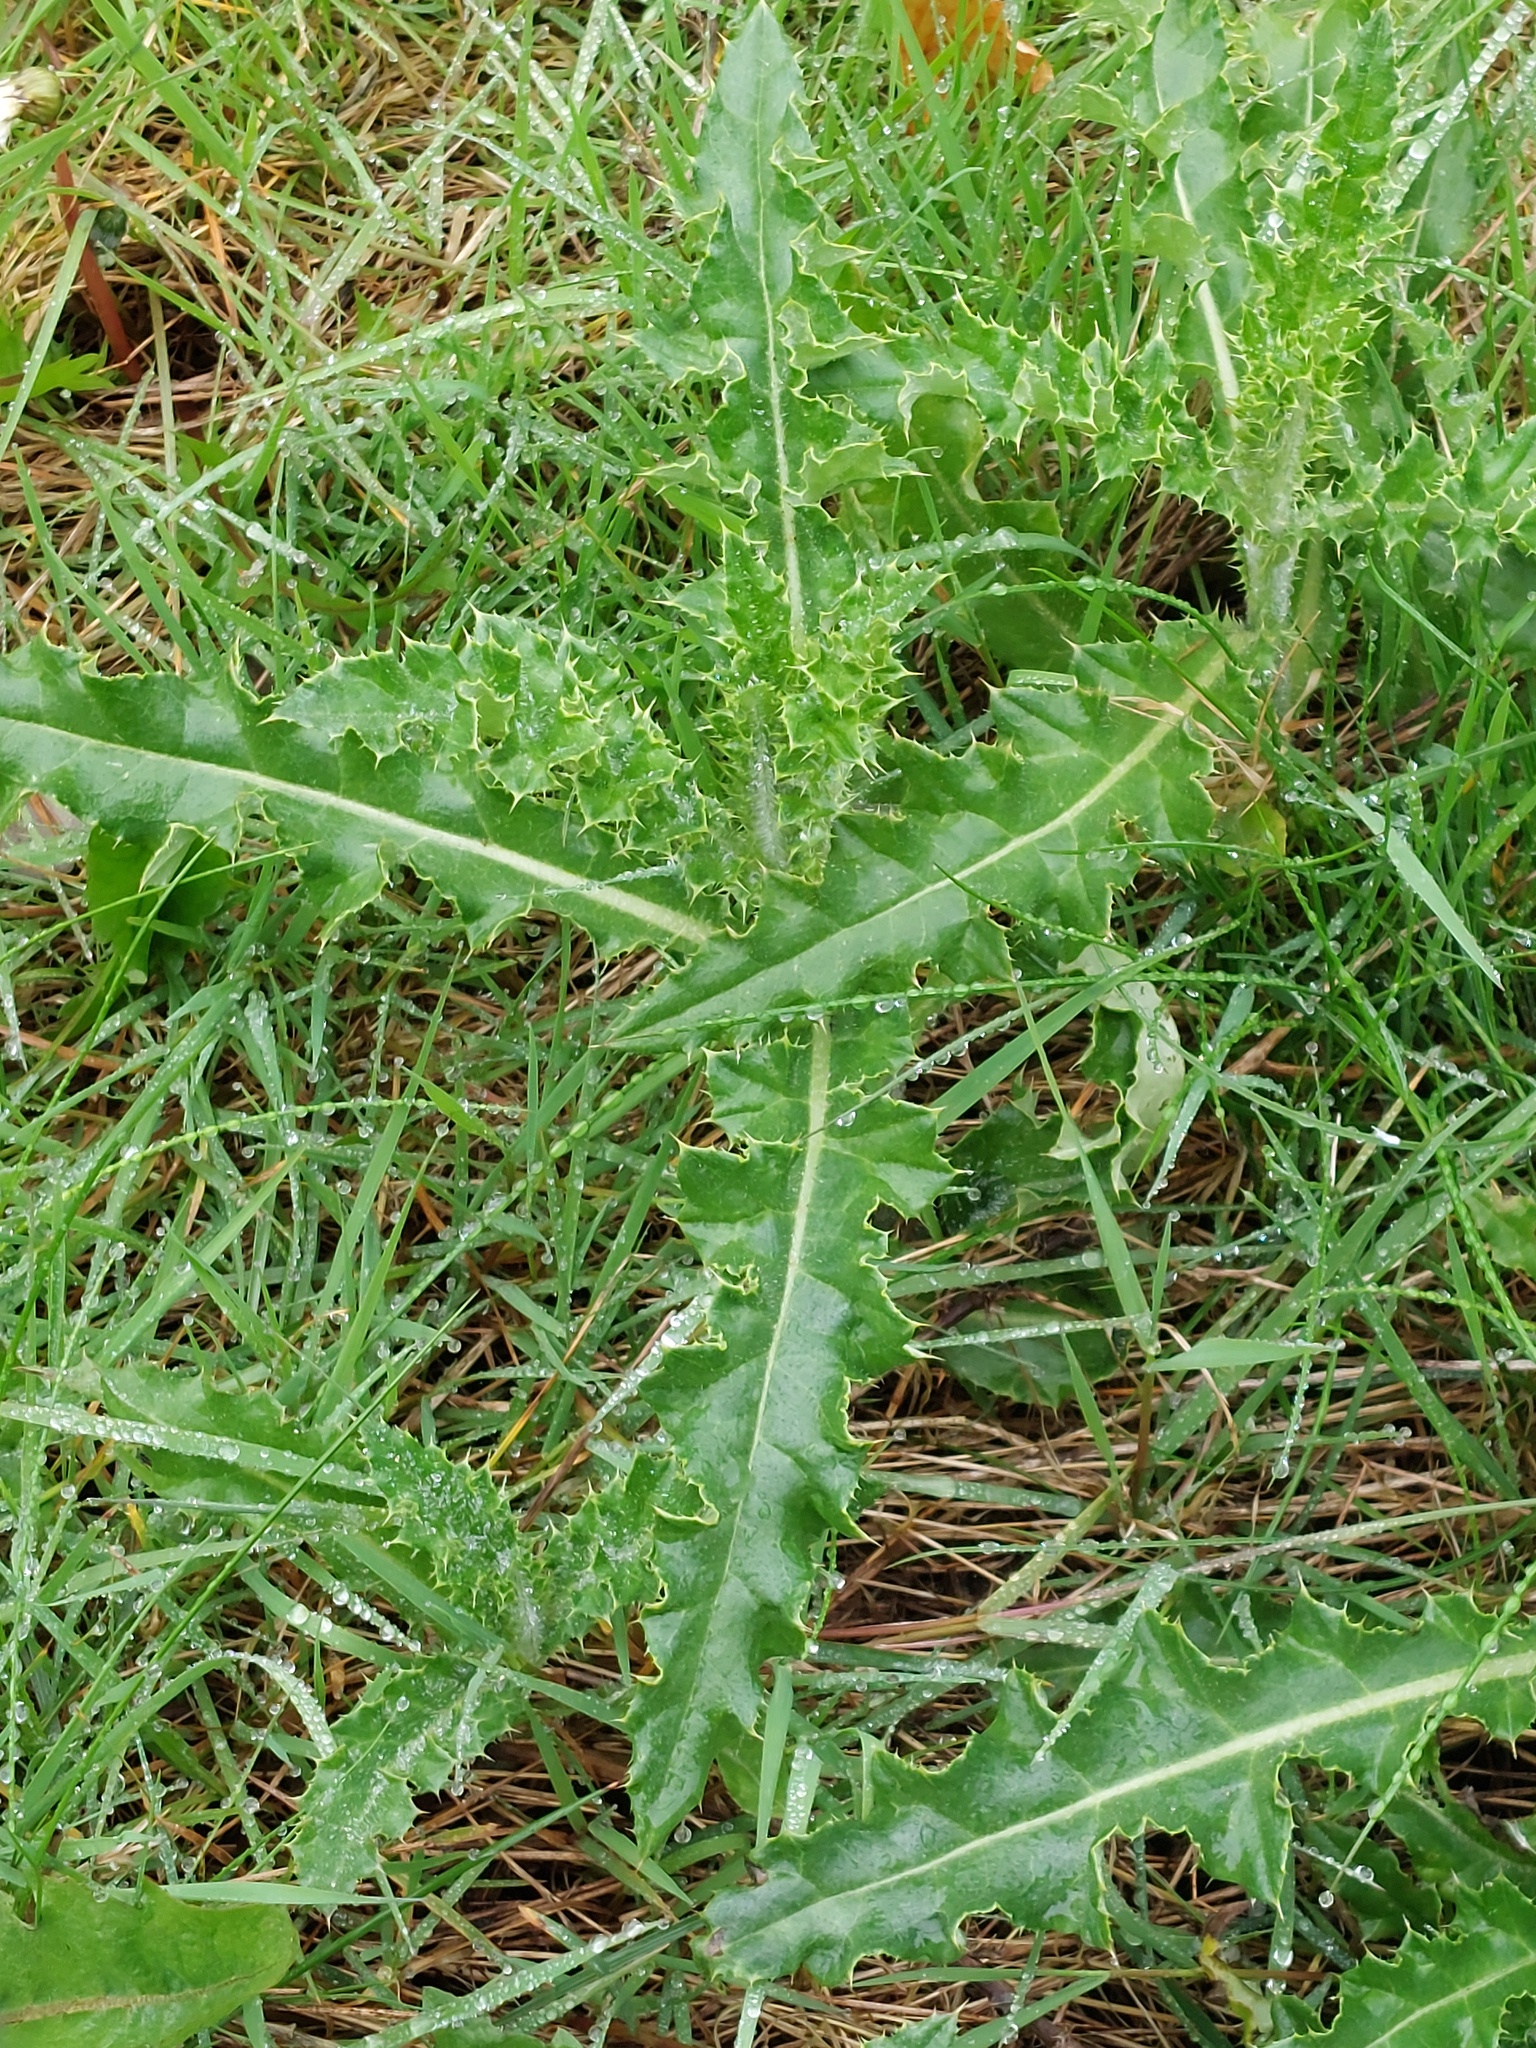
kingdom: Plantae
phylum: Tracheophyta
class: Magnoliopsida
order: Asterales
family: Asteraceae
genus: Cirsium
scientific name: Cirsium arvense
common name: Creeping thistle
